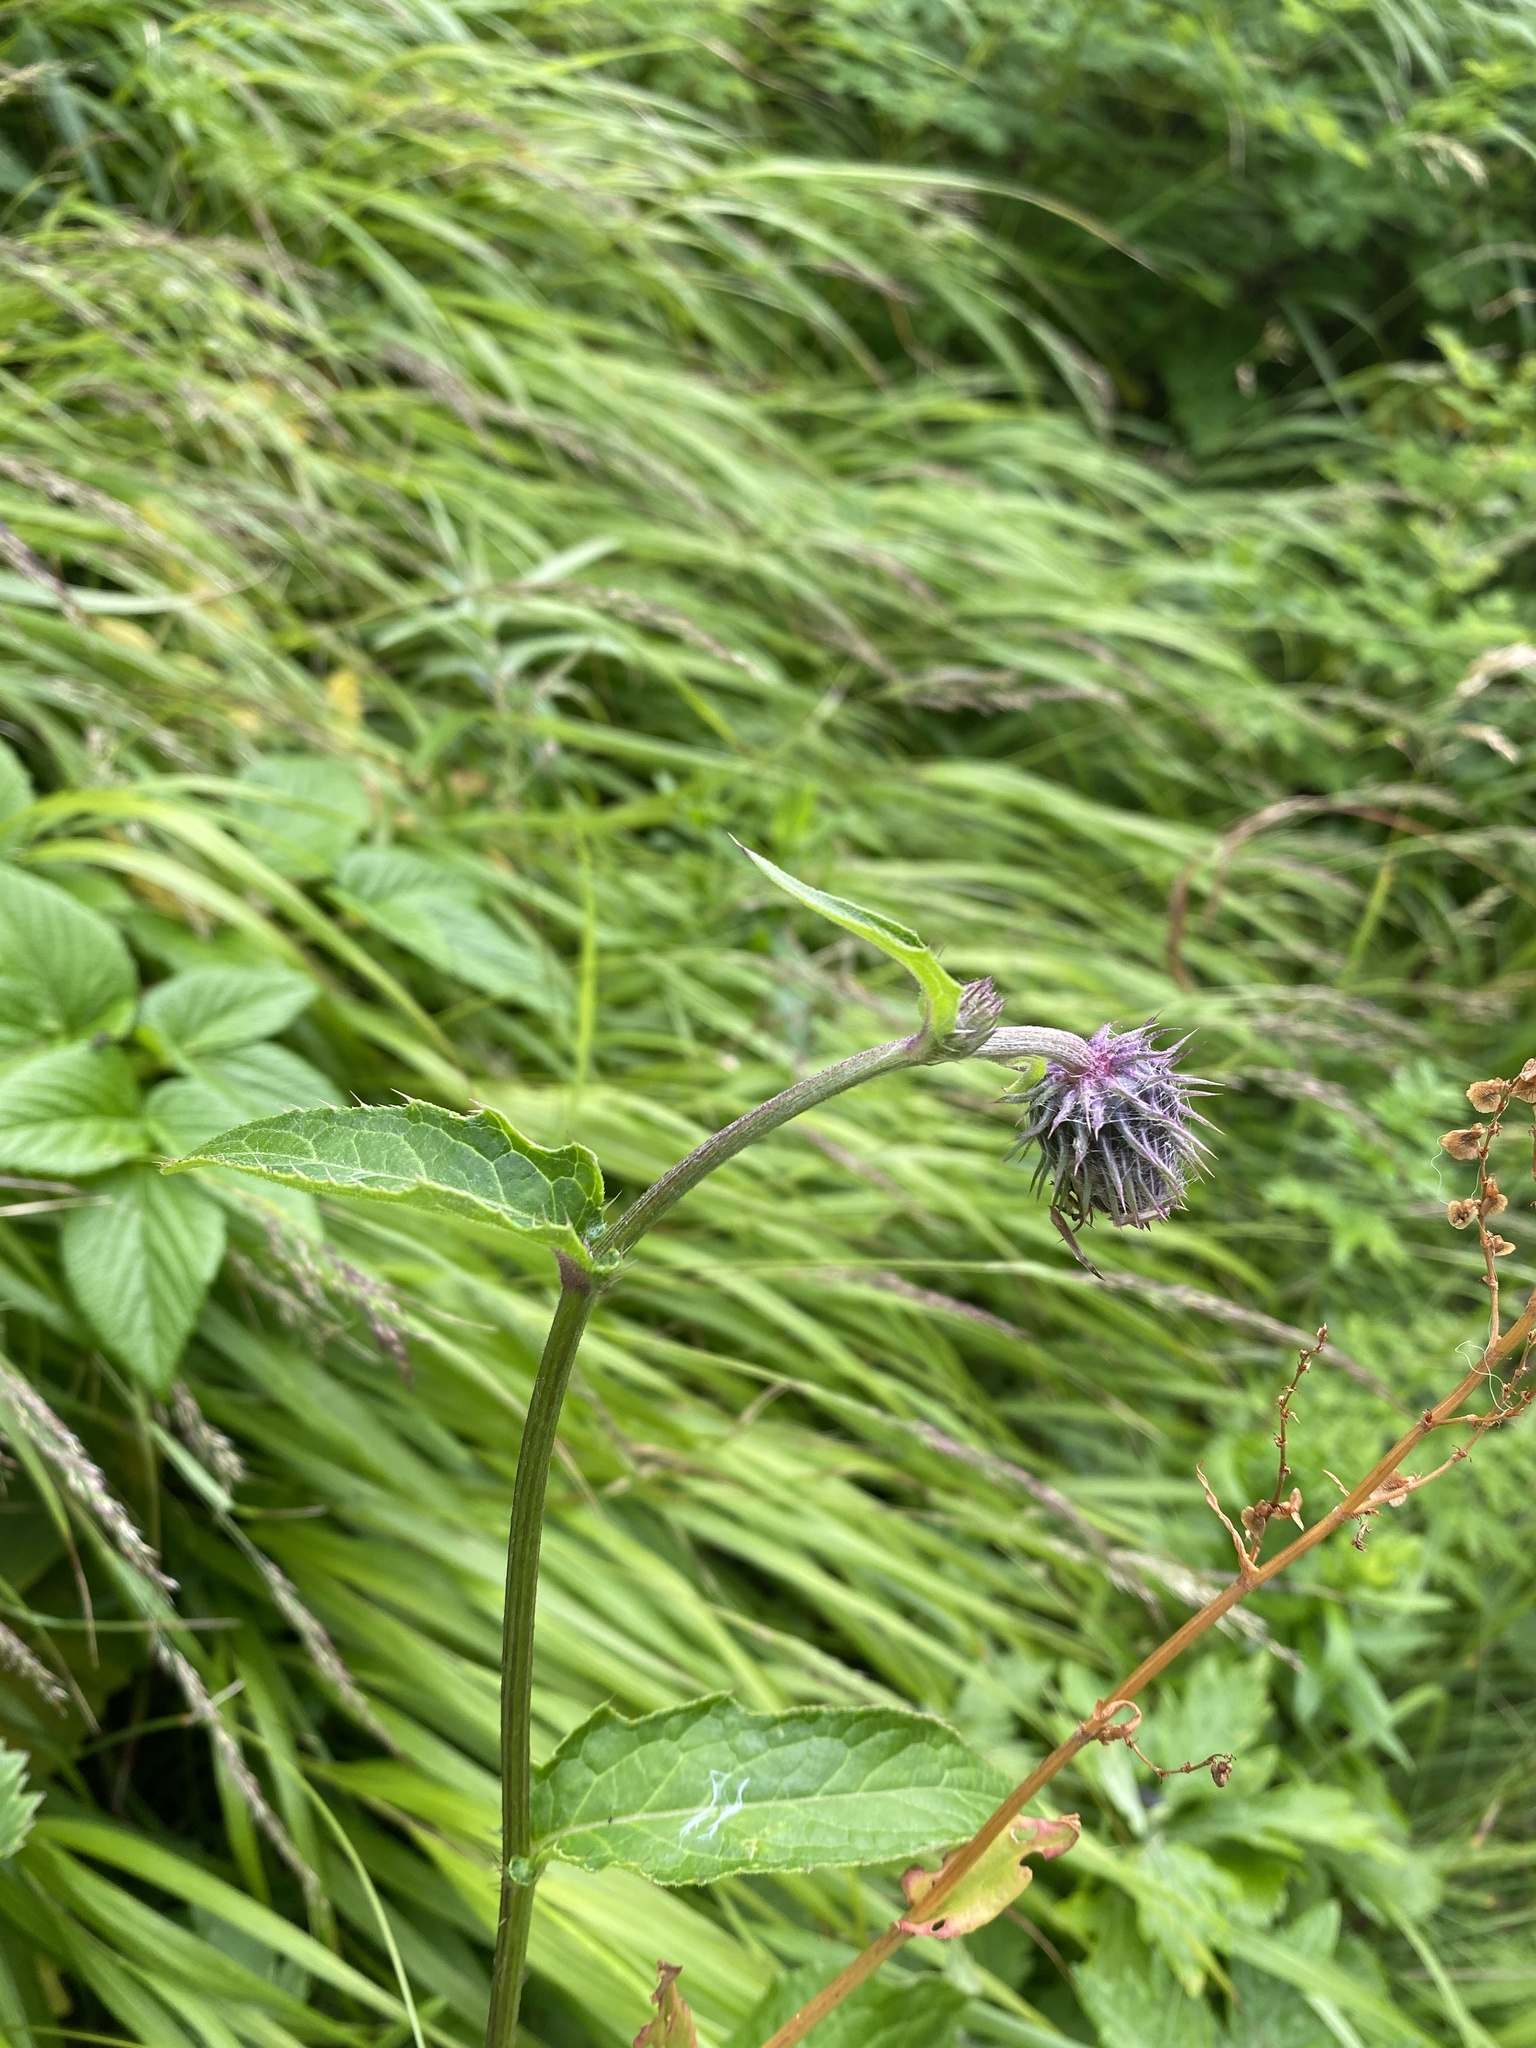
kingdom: Plantae
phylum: Tracheophyta
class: Magnoliopsida
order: Asterales
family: Asteraceae
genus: Cirsium
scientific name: Cirsium kamtschaticum
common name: Kamchatka thistle
